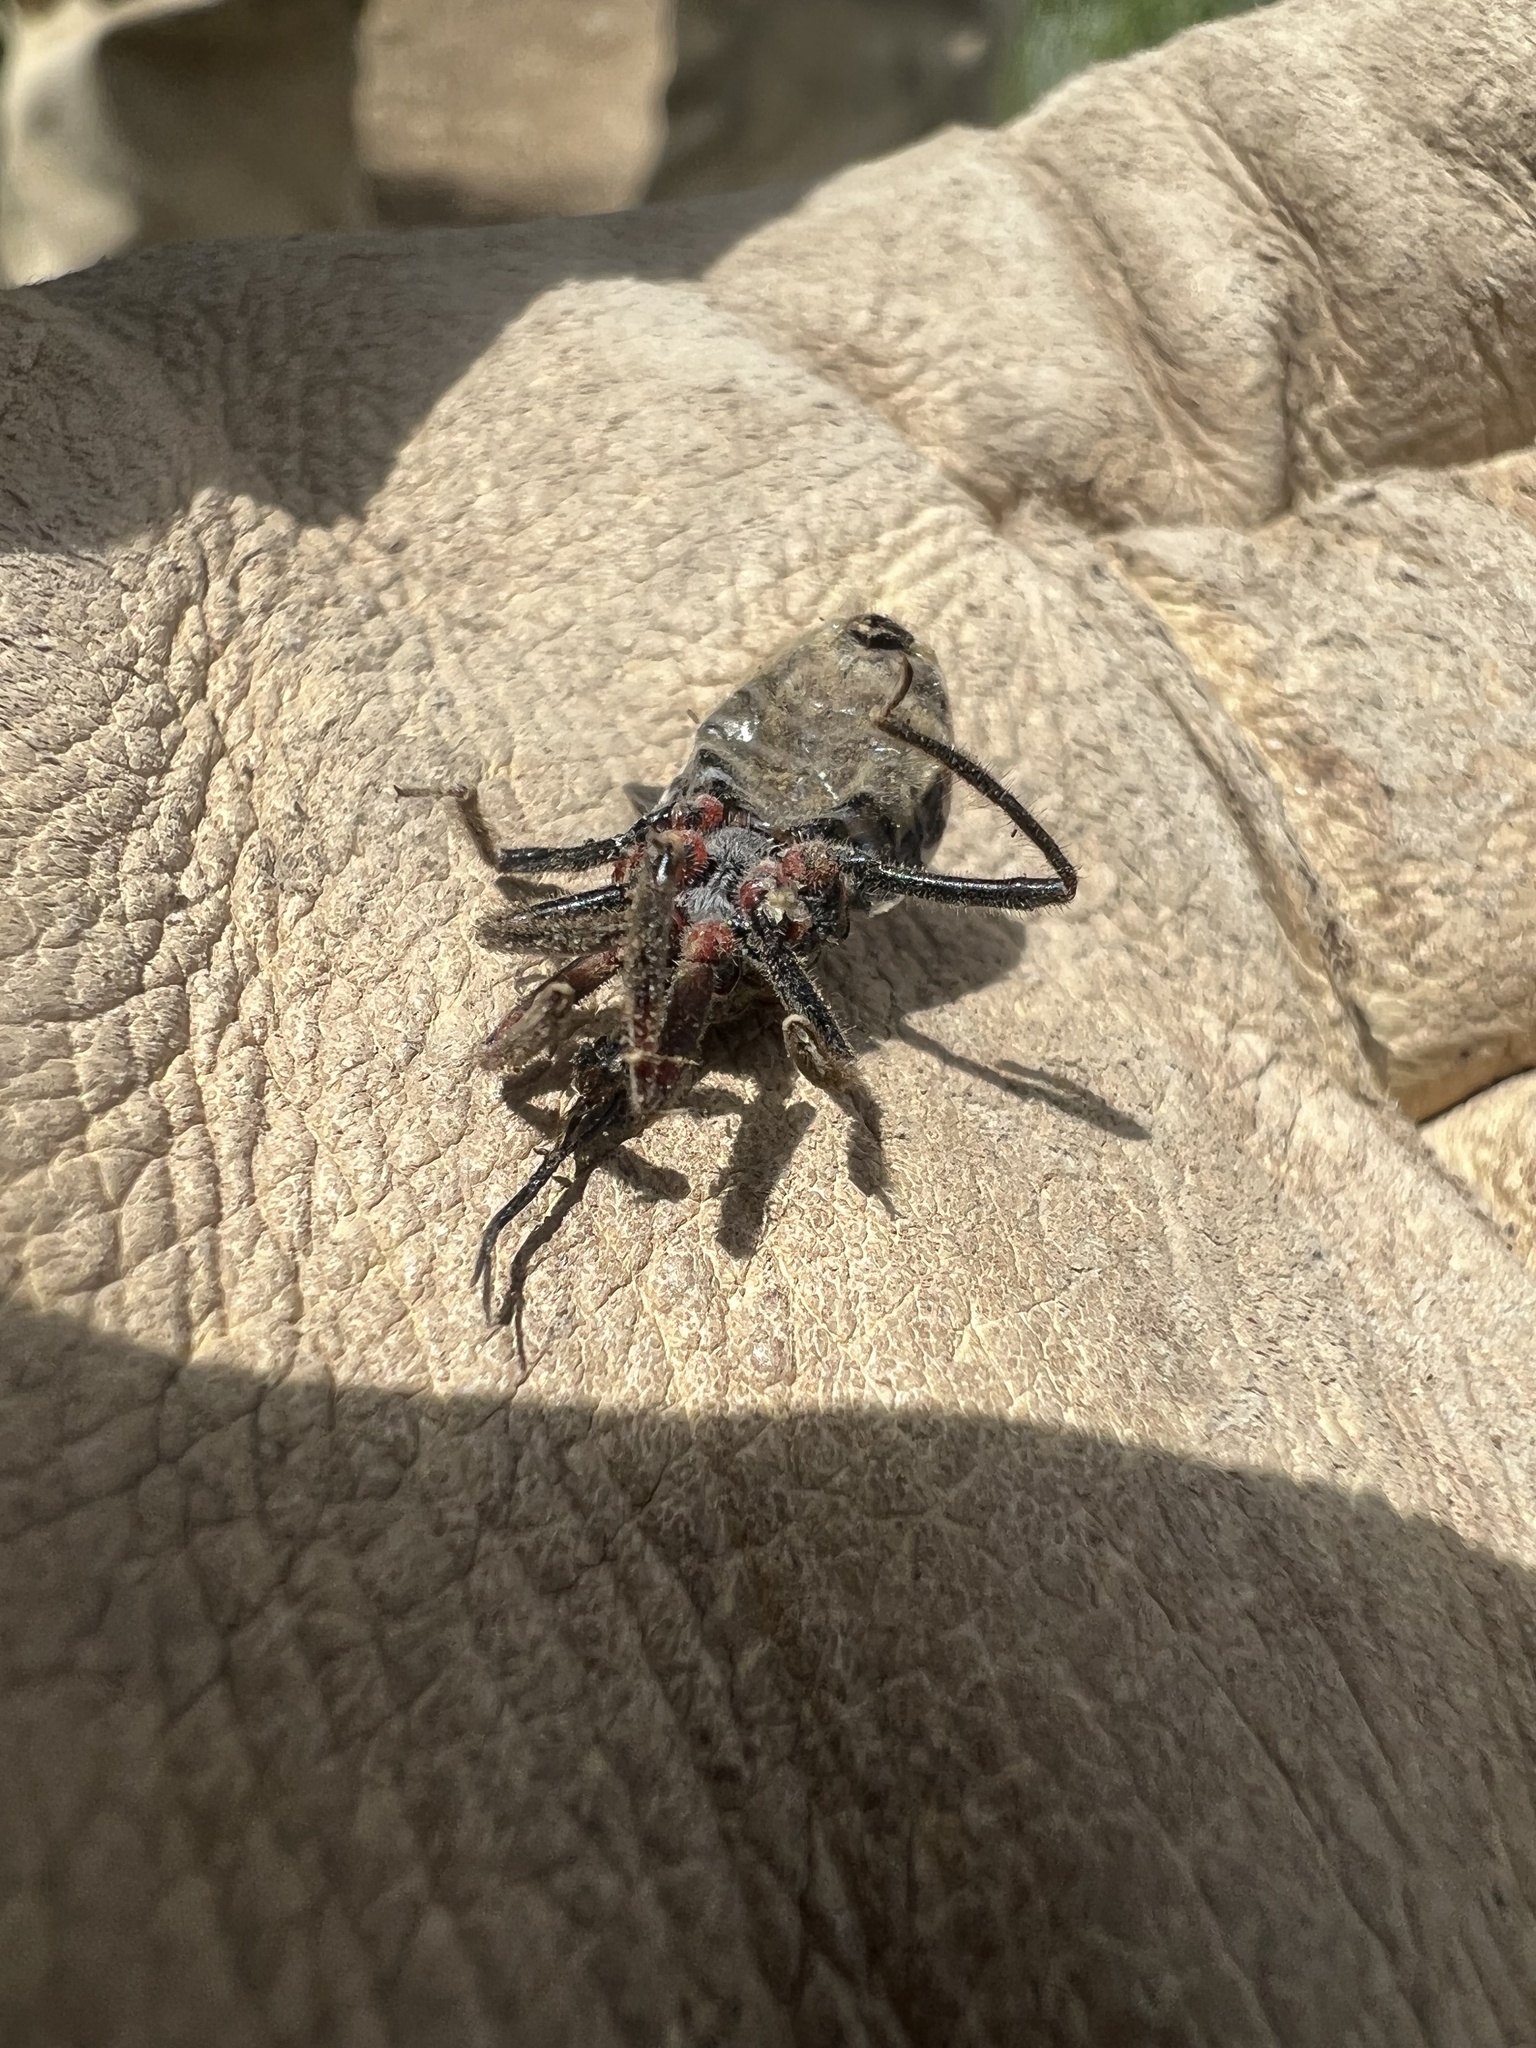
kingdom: Animalia
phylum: Arthropoda
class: Insecta
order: Hemiptera
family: Reduviidae
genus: Apiomerus
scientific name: Apiomerus spissipes
